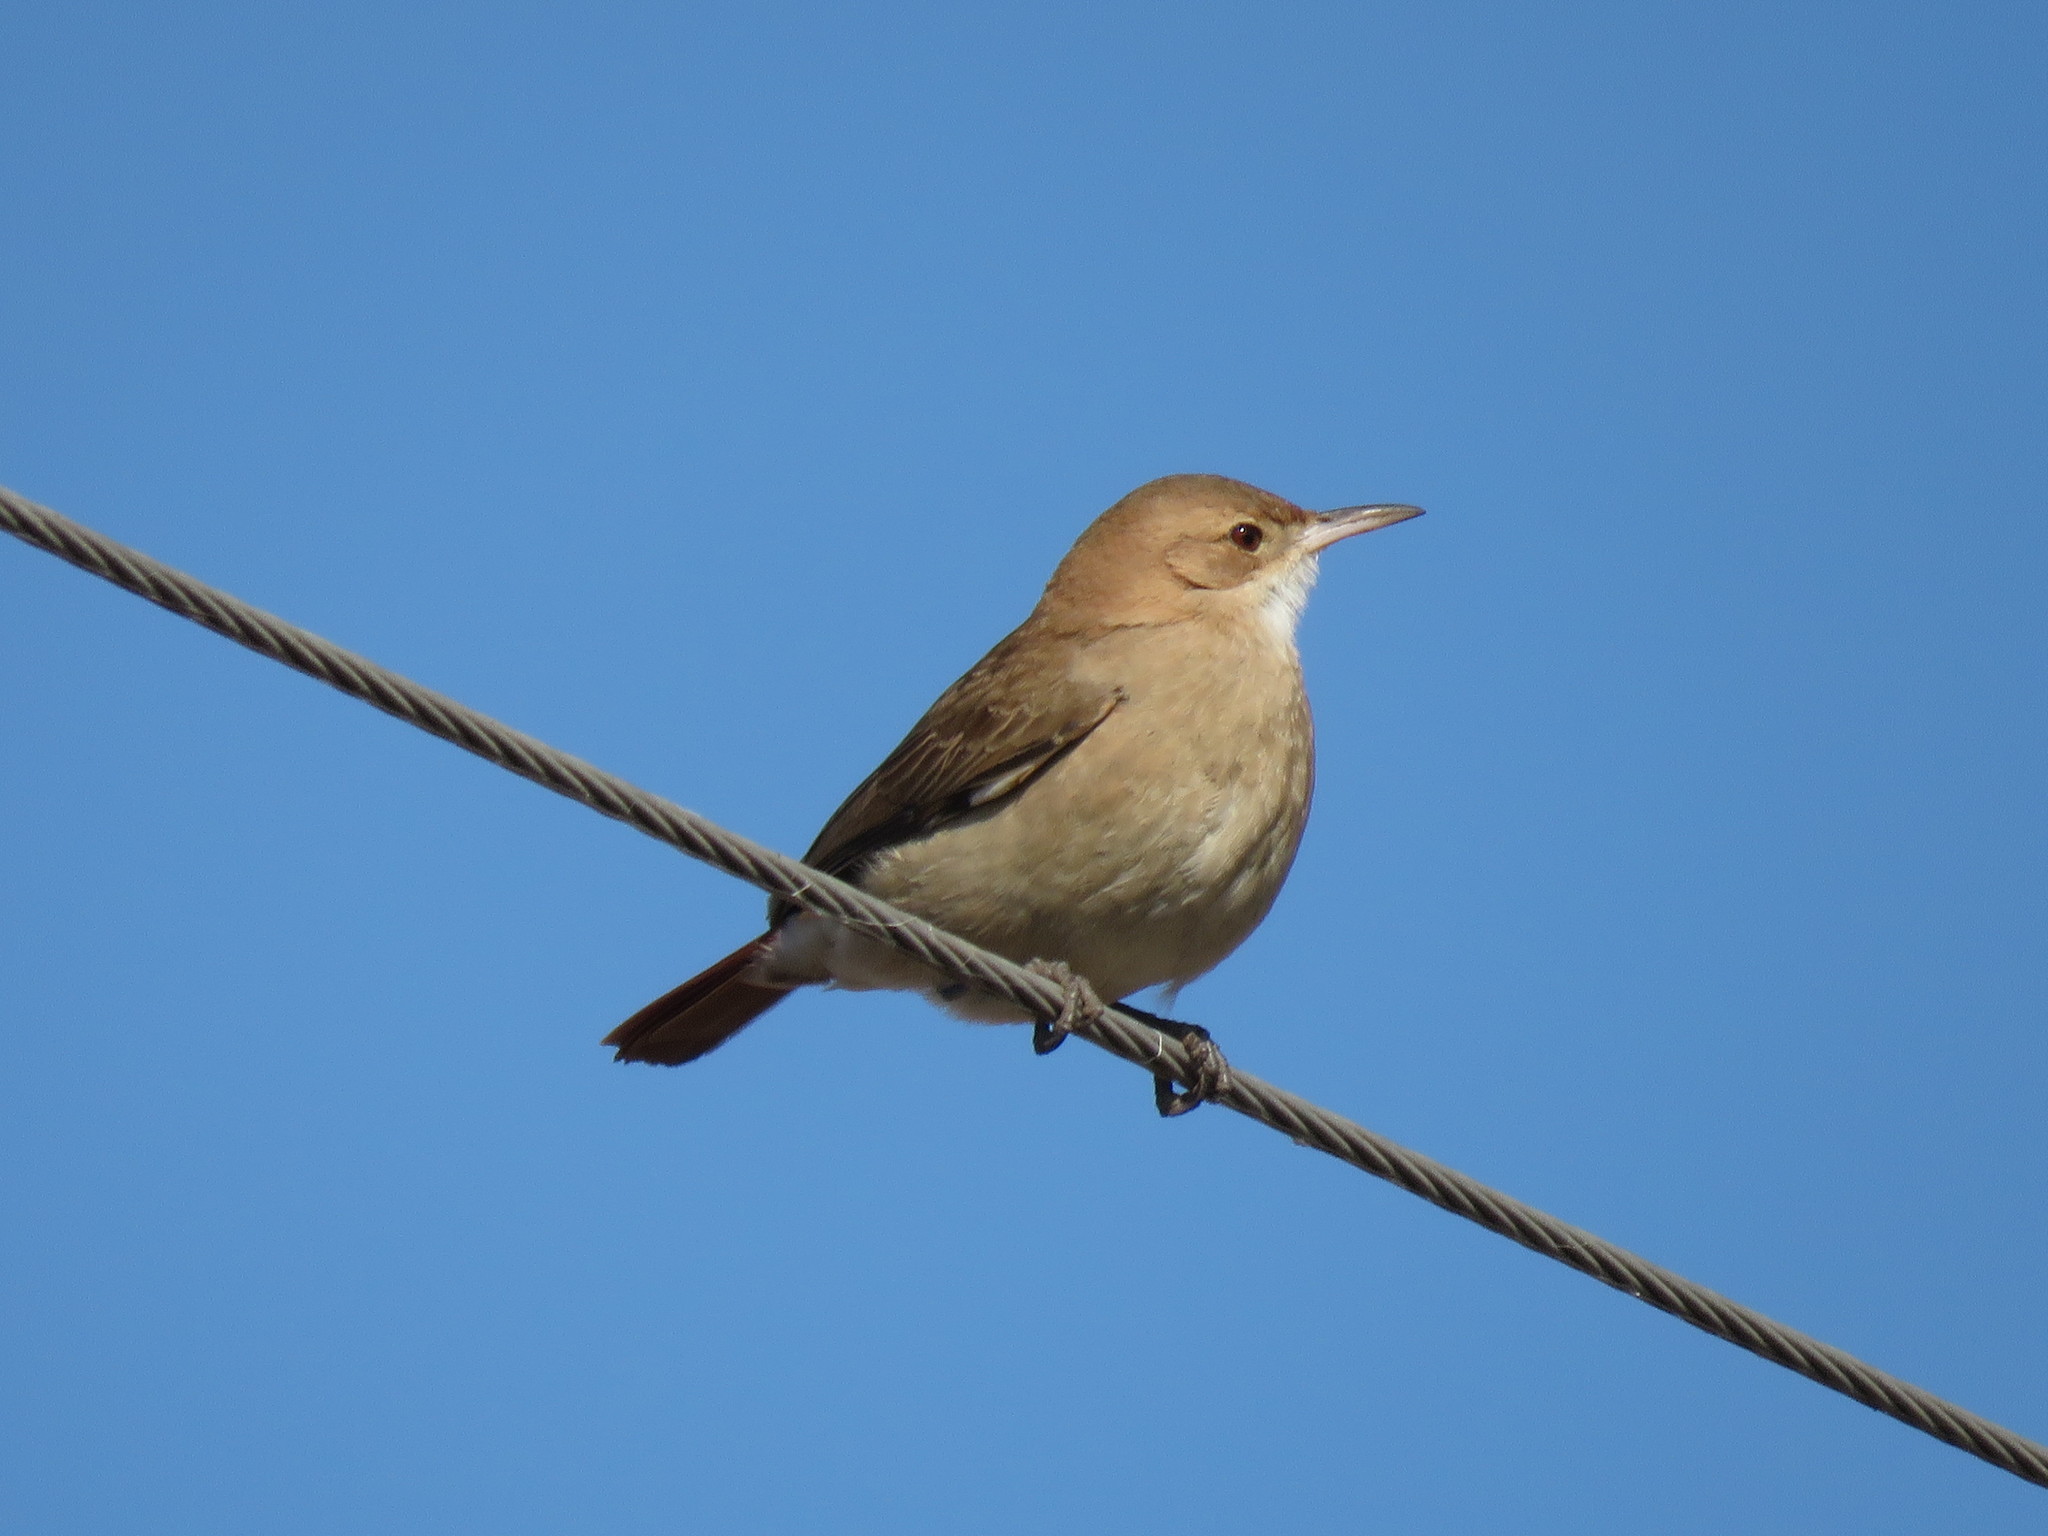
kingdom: Animalia
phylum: Chordata
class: Aves
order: Passeriformes
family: Furnariidae
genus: Furnarius
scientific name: Furnarius rufus
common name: Rufous hornero
